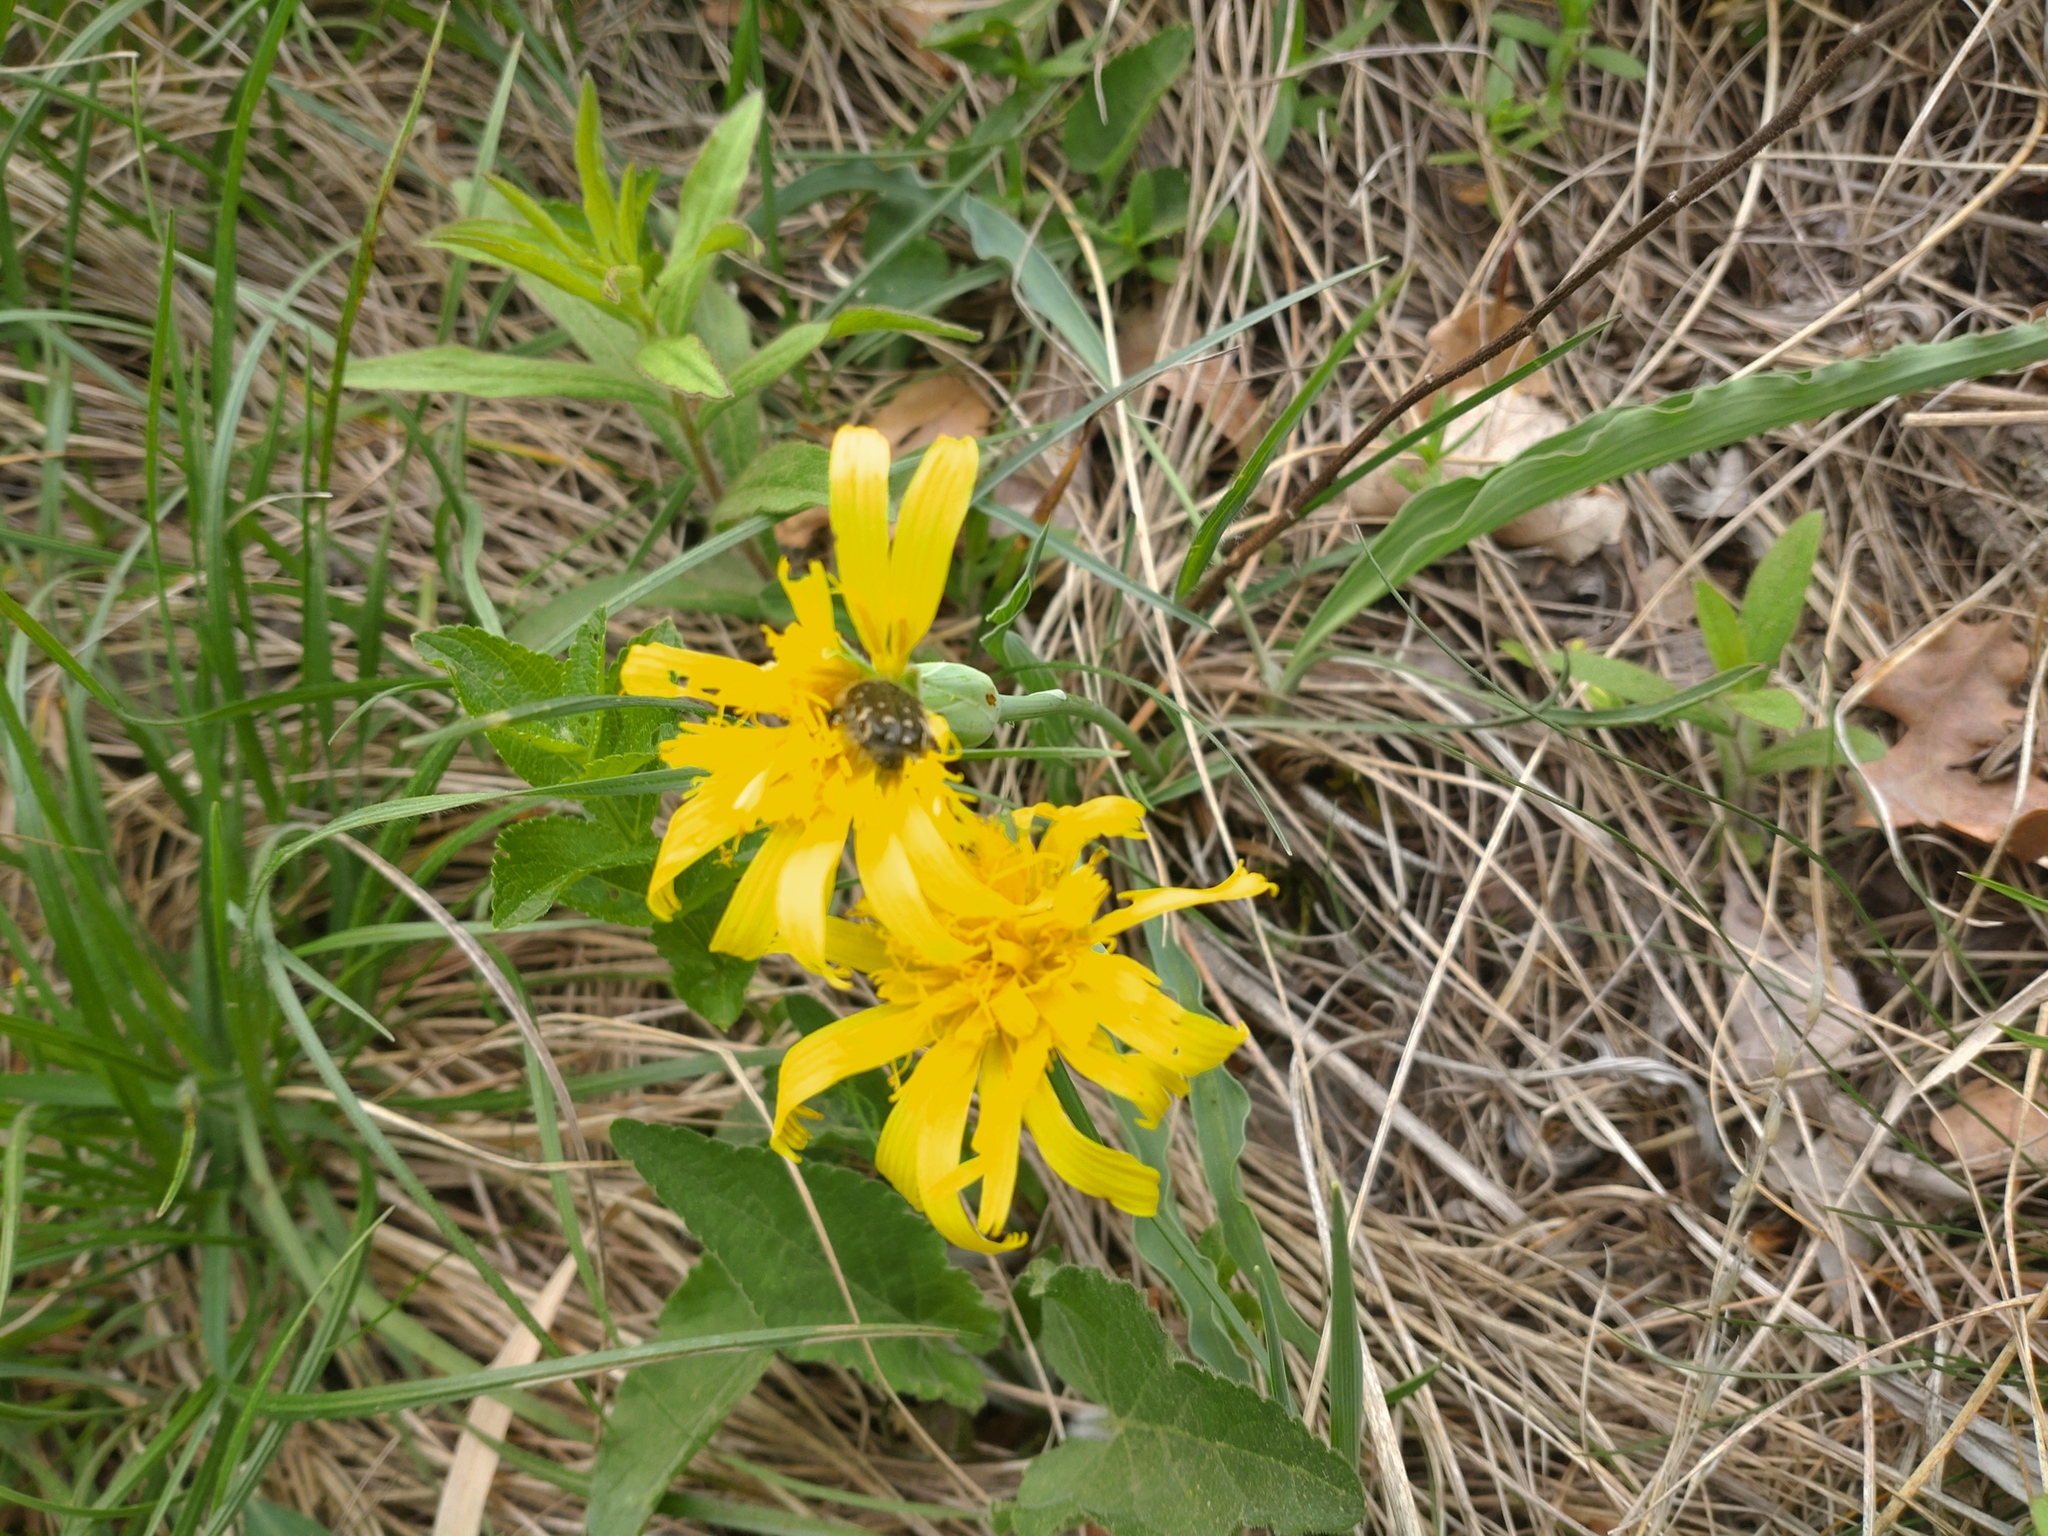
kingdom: Animalia
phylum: Arthropoda
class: Insecta
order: Coleoptera
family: Scarabaeidae
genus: Tropinota
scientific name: Tropinota hirta
